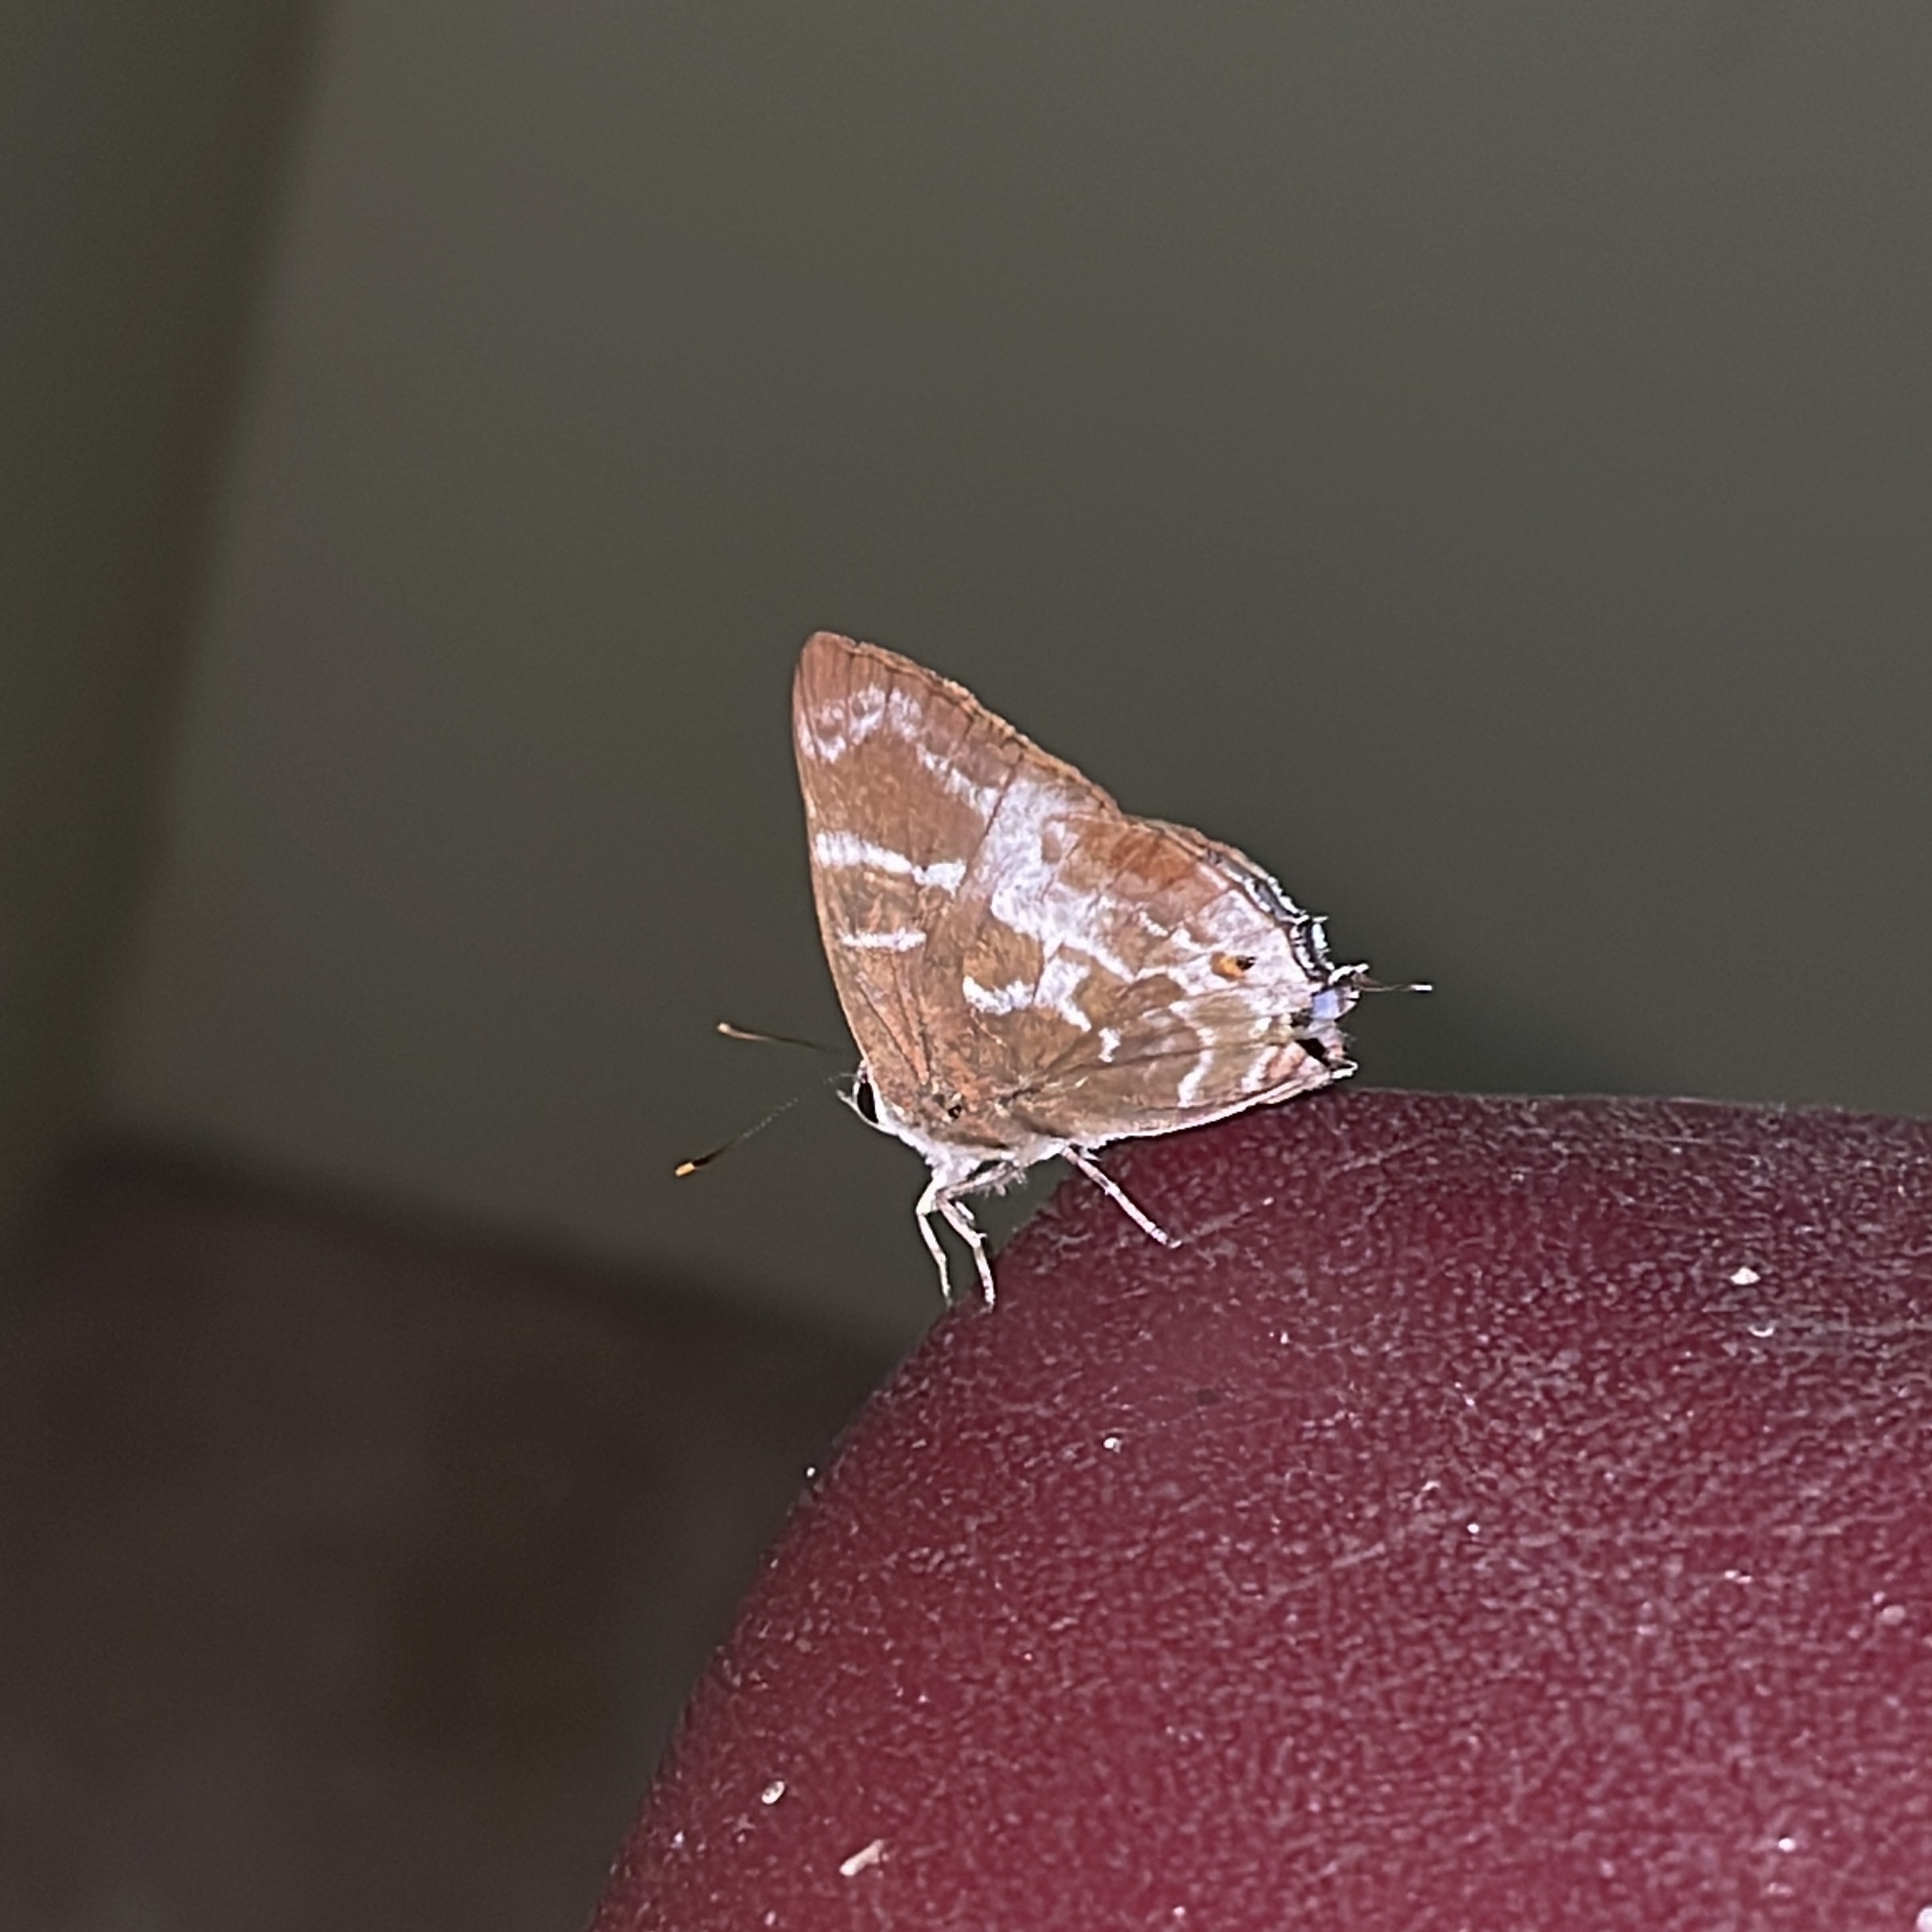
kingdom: Animalia
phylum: Arthropoda
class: Insecta
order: Lepidoptera
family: Lycaenidae
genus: Thereus
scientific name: Thereus lausus
